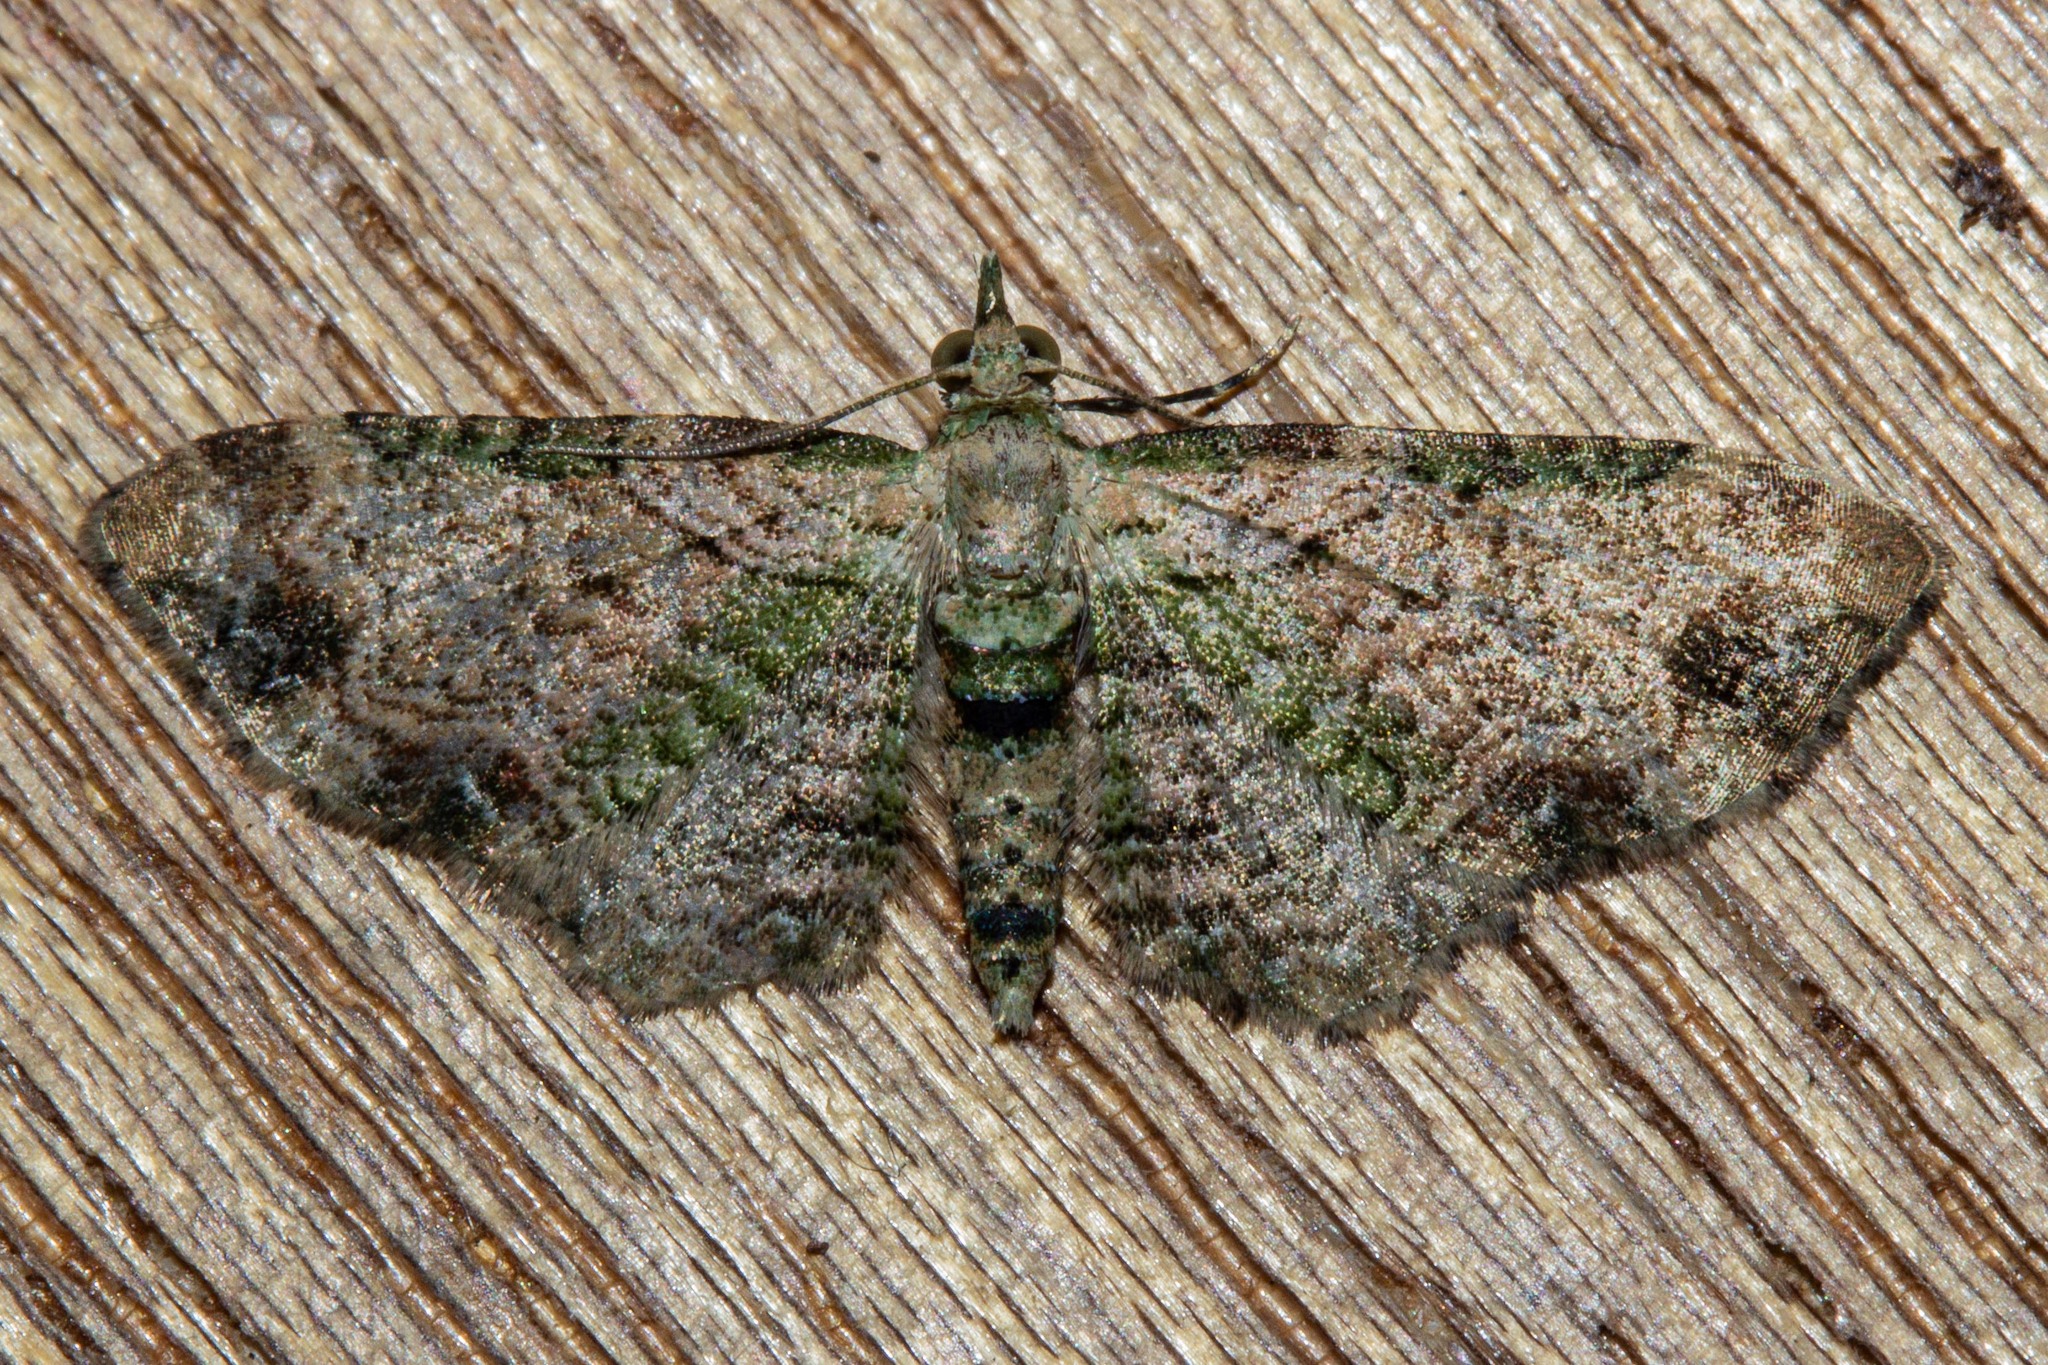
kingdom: Animalia
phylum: Arthropoda
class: Insecta
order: Lepidoptera
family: Geometridae
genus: Chloroclystis
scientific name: Chloroclystis
